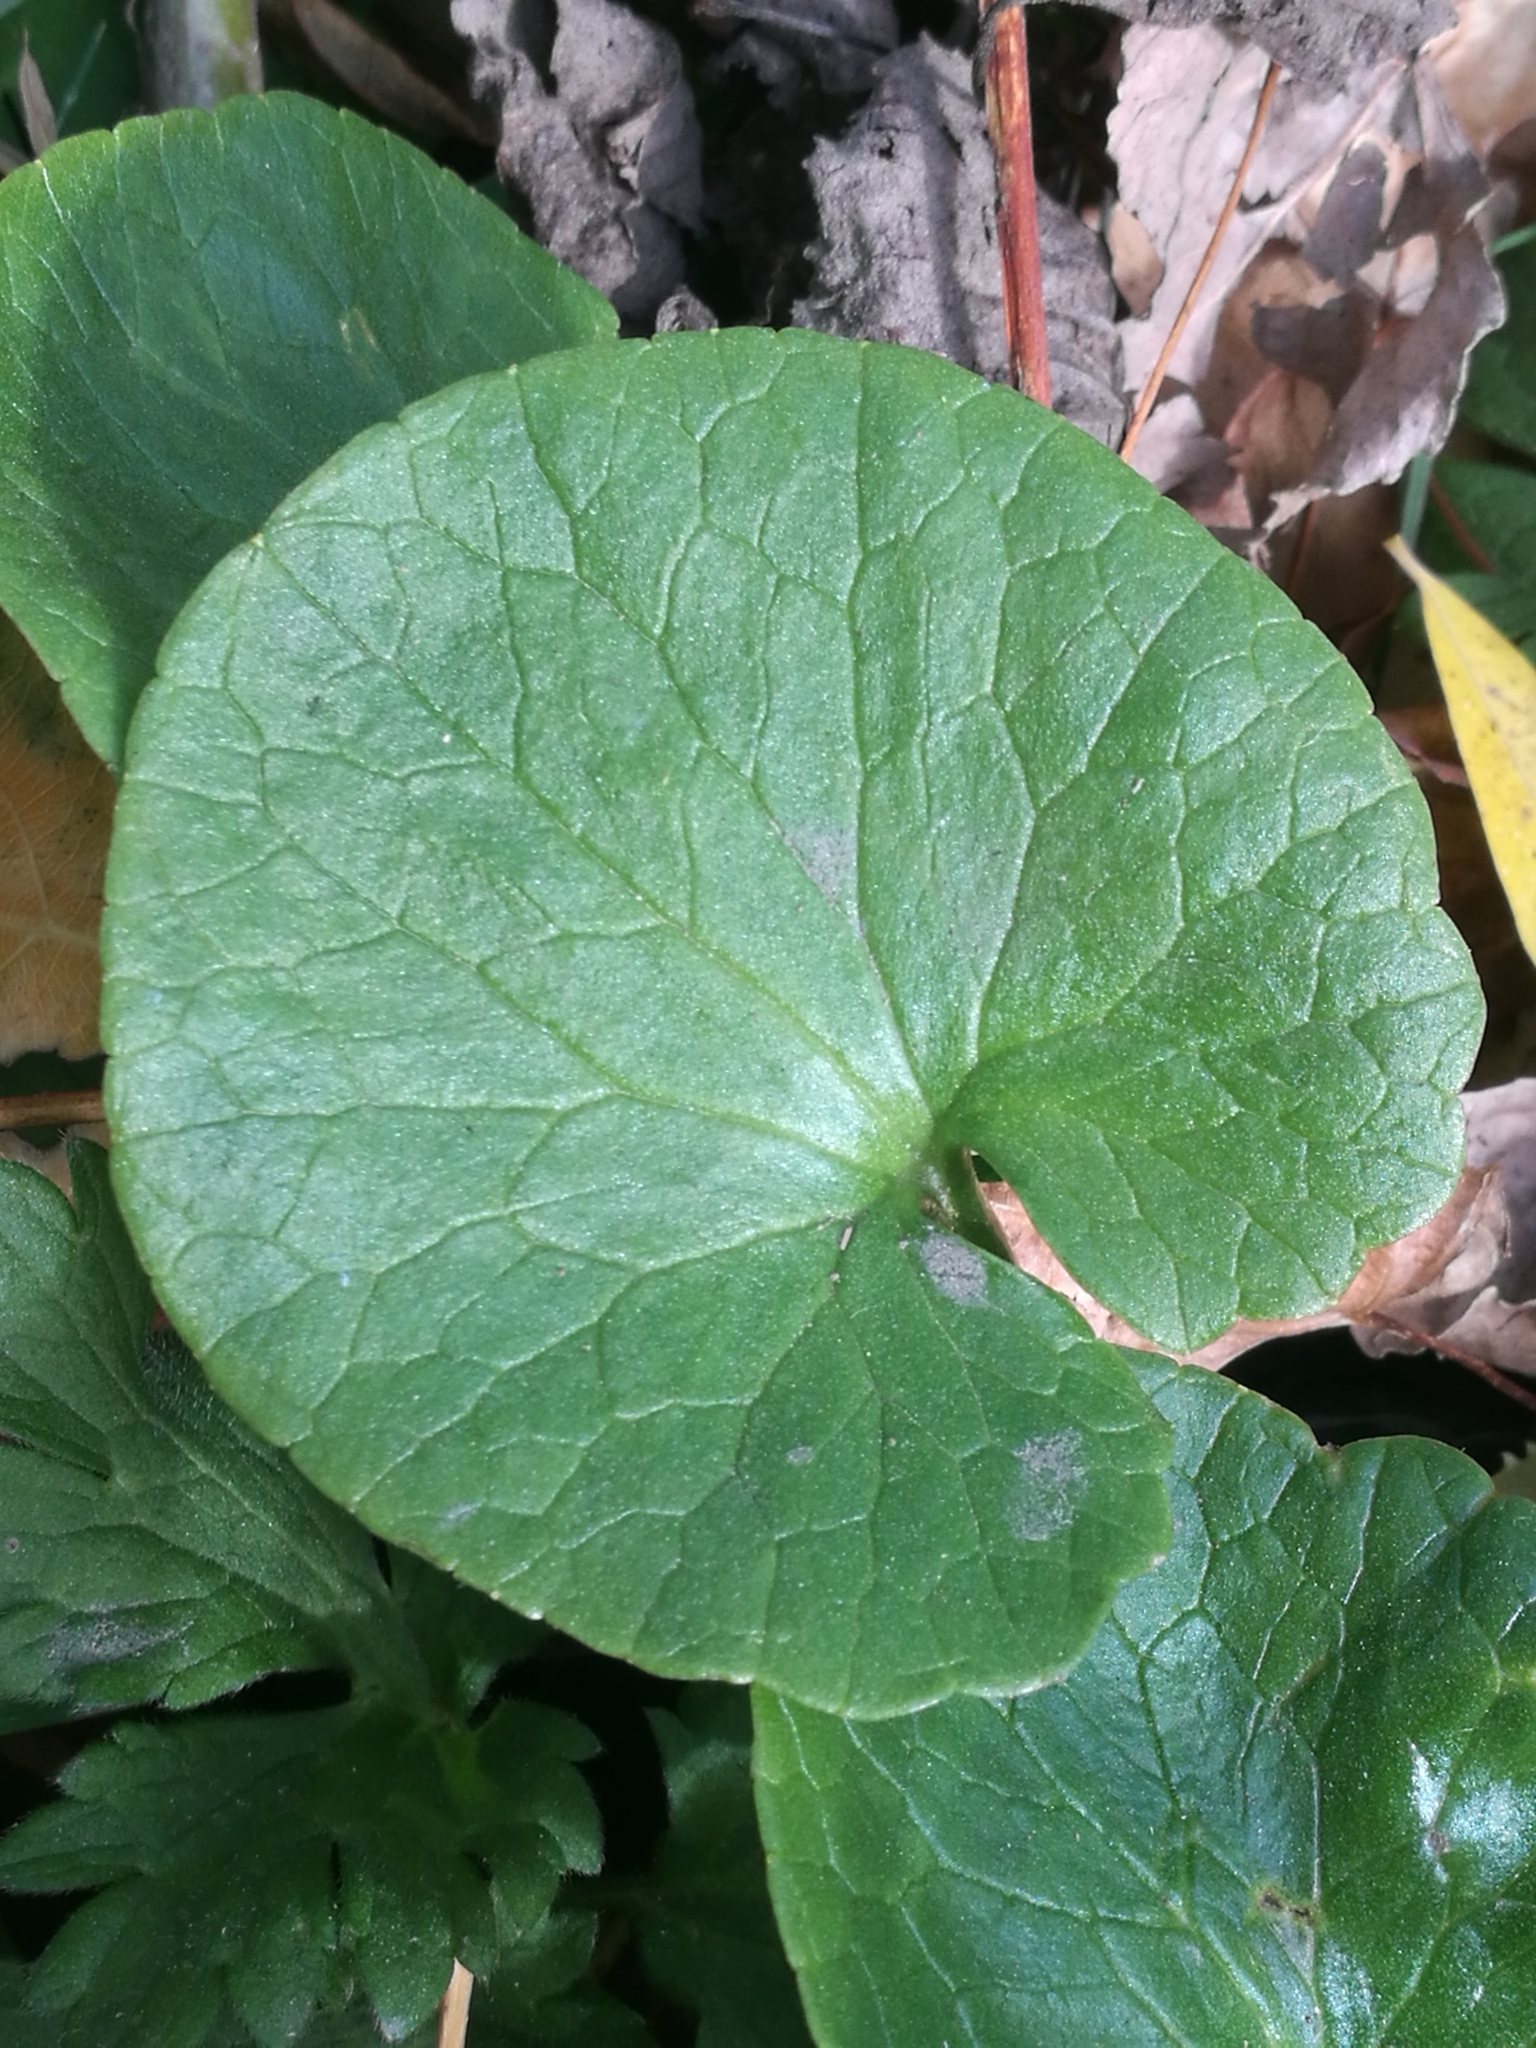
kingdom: Plantae
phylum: Tracheophyta
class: Magnoliopsida
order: Ranunculales
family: Ranunculaceae
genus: Ficaria
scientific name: Ficaria verna
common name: Lesser celandine
